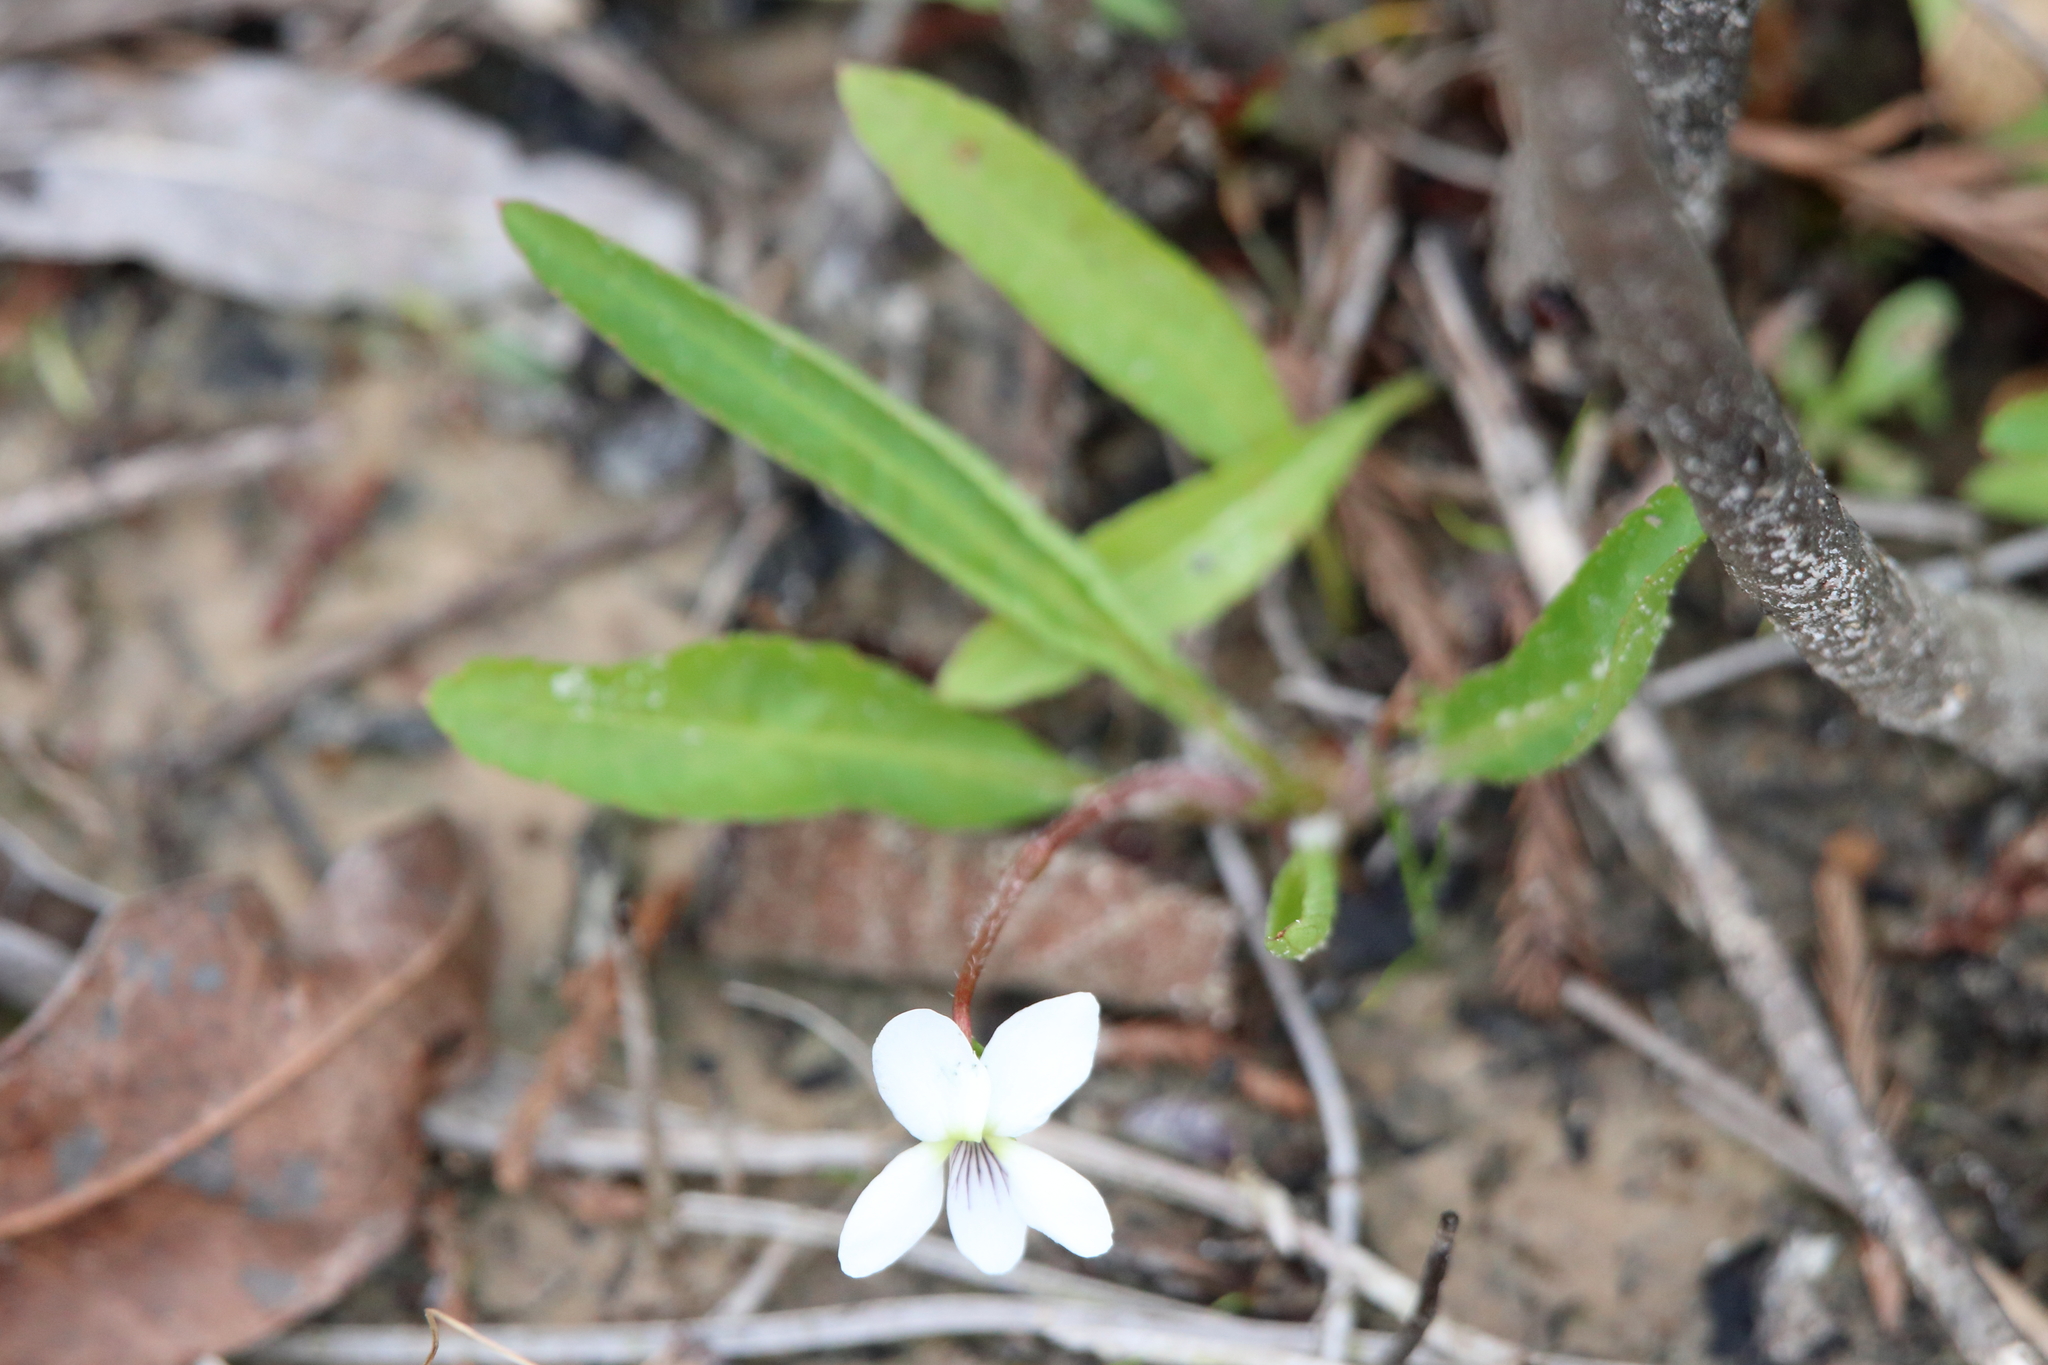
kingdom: Plantae
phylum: Tracheophyta
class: Magnoliopsida
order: Malpighiales
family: Violaceae
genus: Viola
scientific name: Viola lanceolata
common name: Bog white violet
